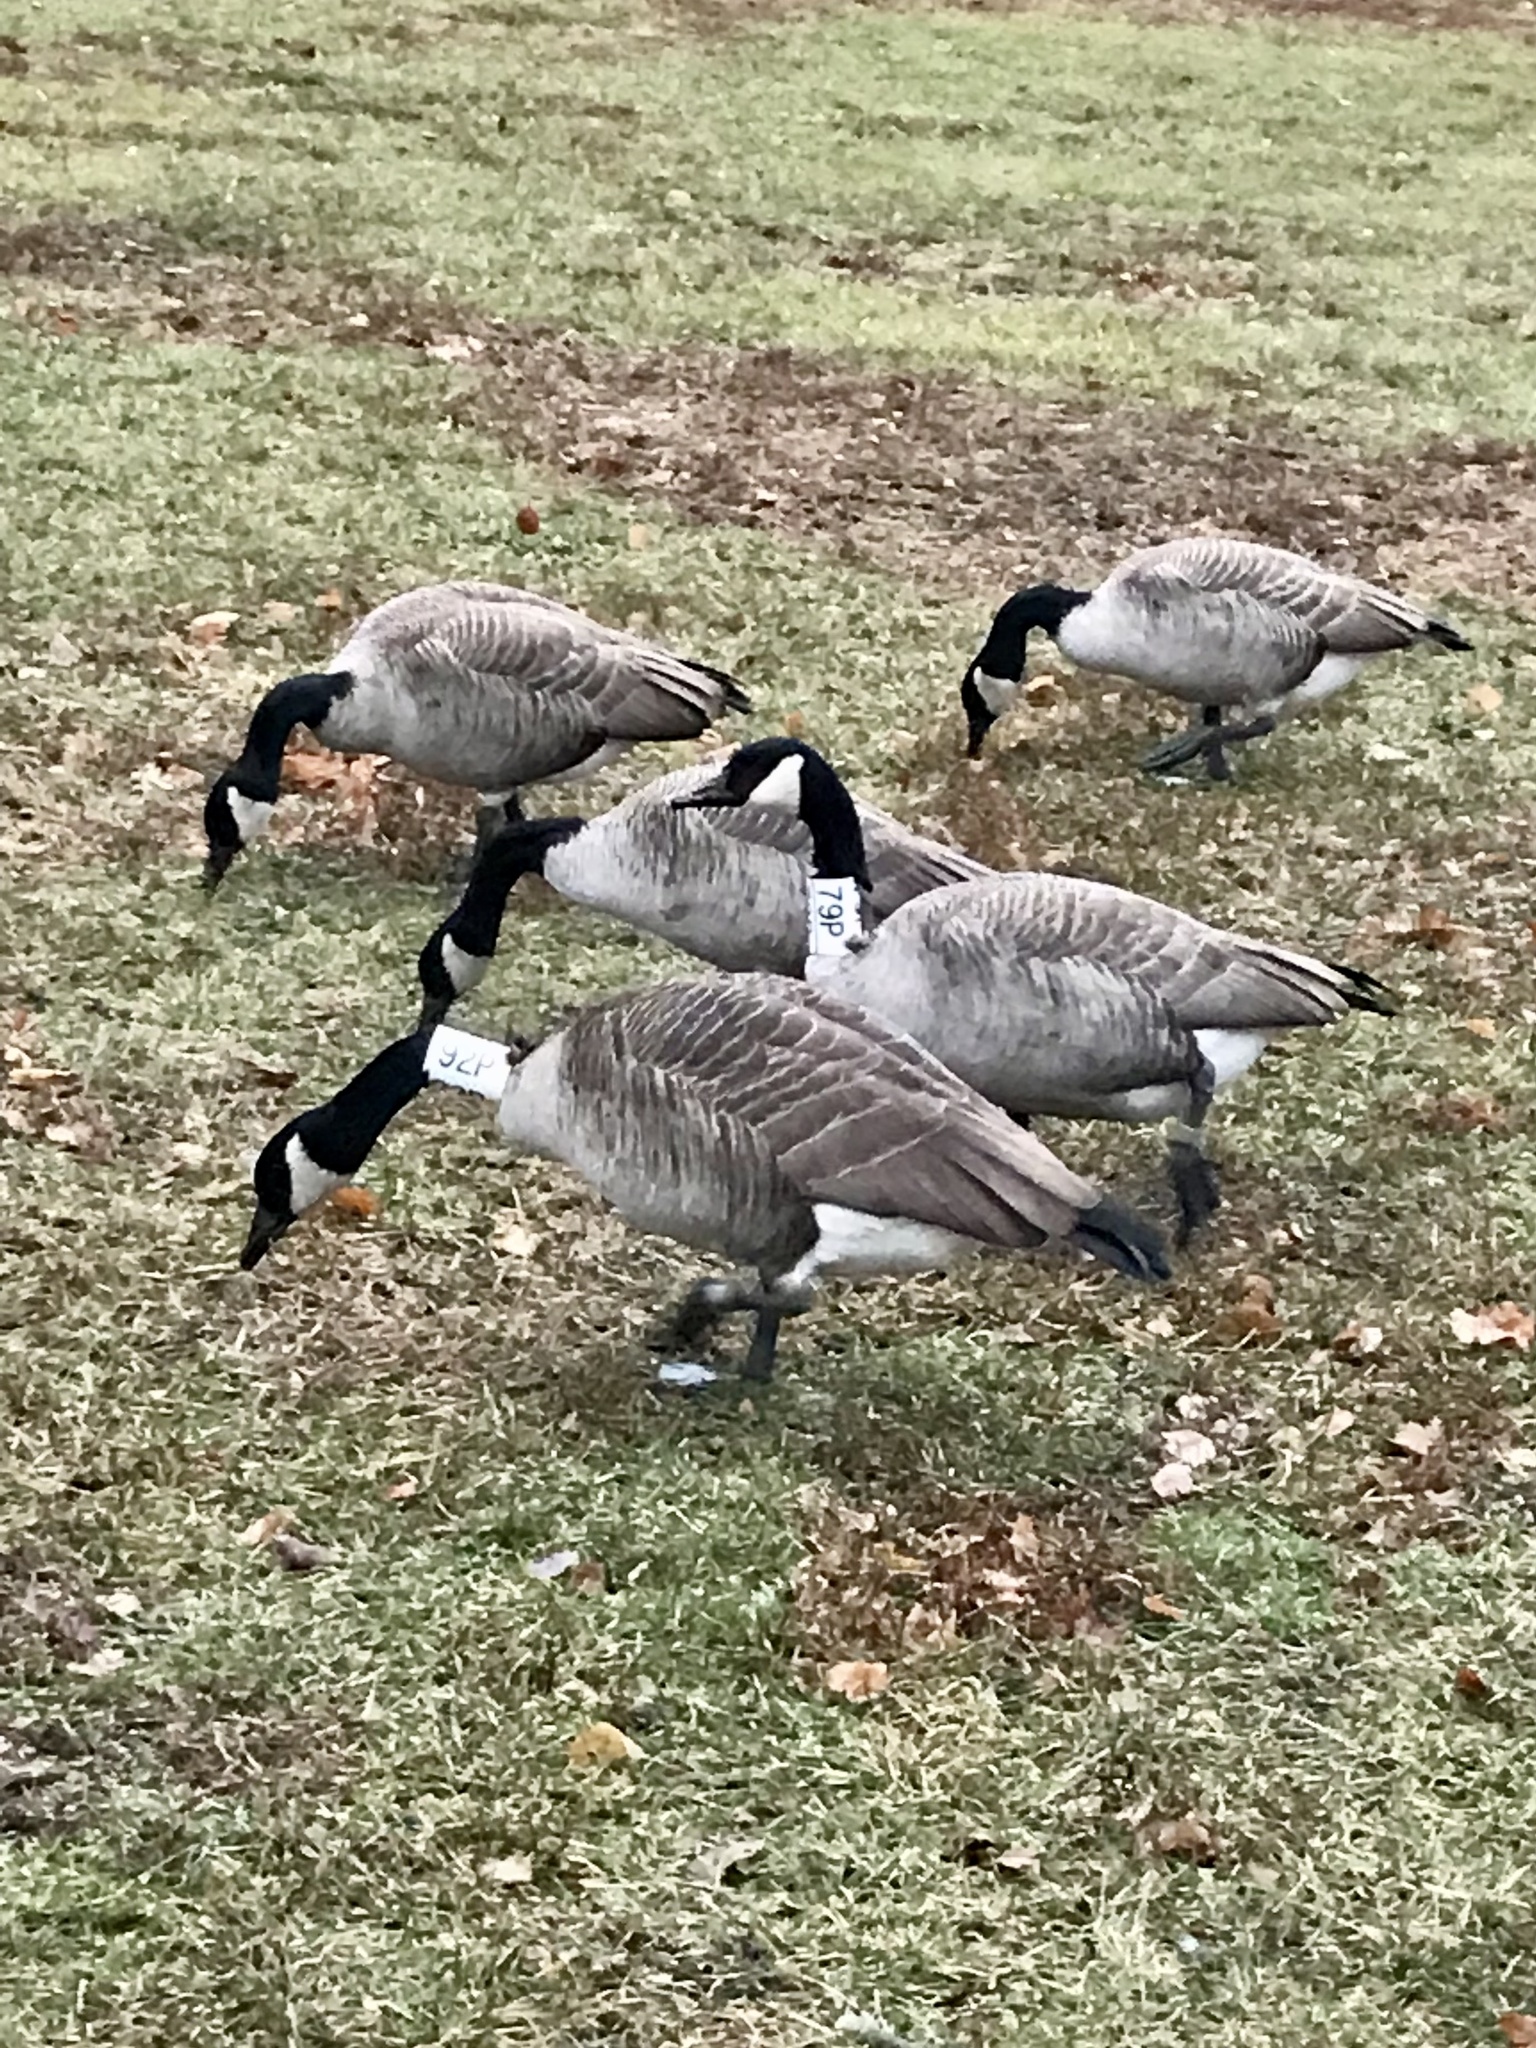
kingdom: Animalia
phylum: Chordata
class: Aves
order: Anseriformes
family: Anatidae
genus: Branta
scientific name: Branta canadensis
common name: Canada goose
